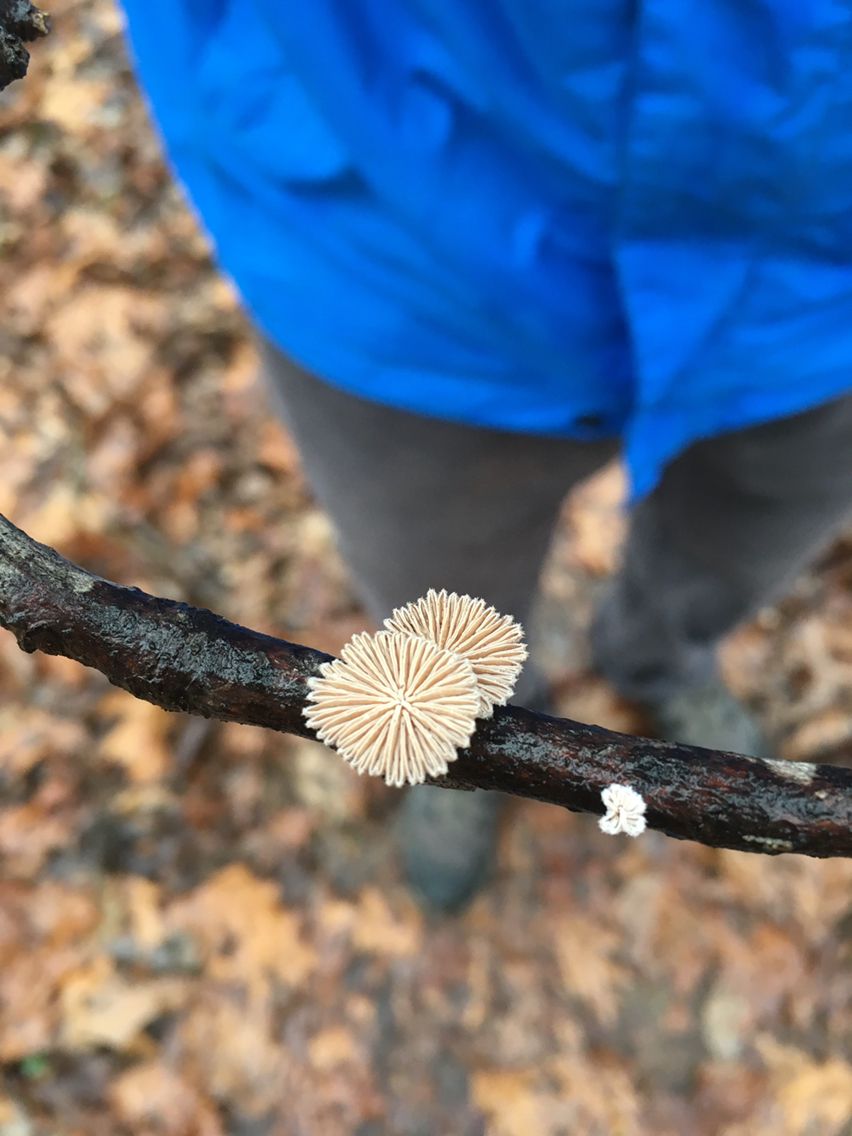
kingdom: Fungi
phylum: Basidiomycota
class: Agaricomycetes
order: Agaricales
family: Schizophyllaceae
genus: Schizophyllum
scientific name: Schizophyllum commune
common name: Common porecrust
